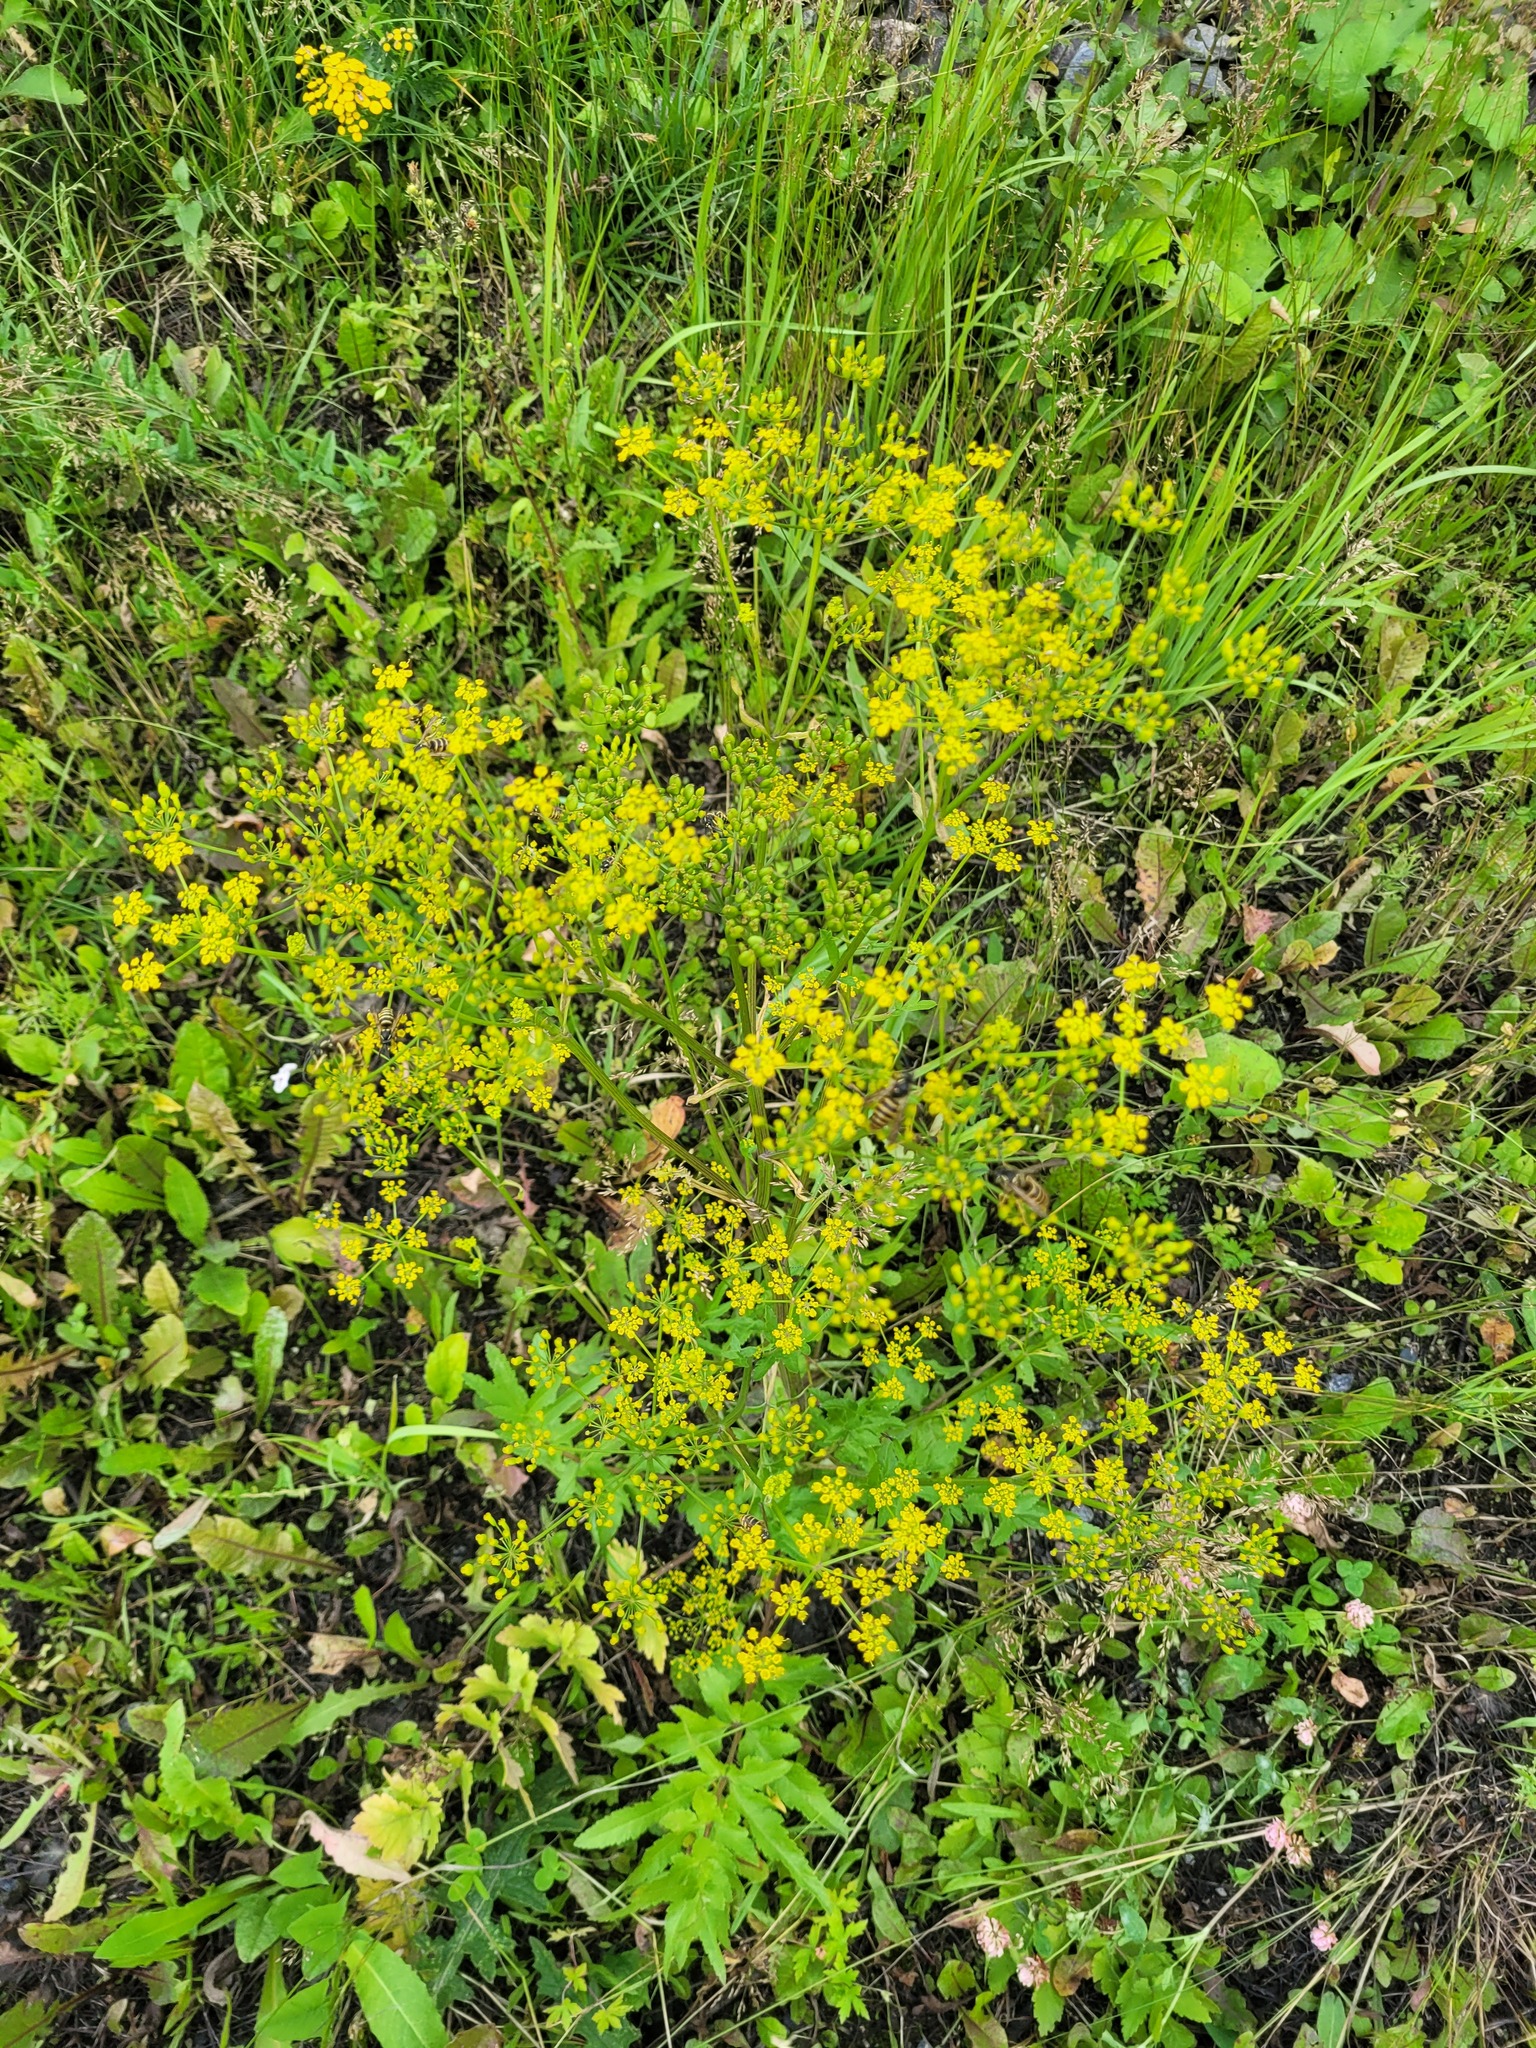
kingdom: Plantae
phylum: Tracheophyta
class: Magnoliopsida
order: Apiales
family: Apiaceae
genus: Pastinaca
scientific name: Pastinaca sativa
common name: Wild parsnip
